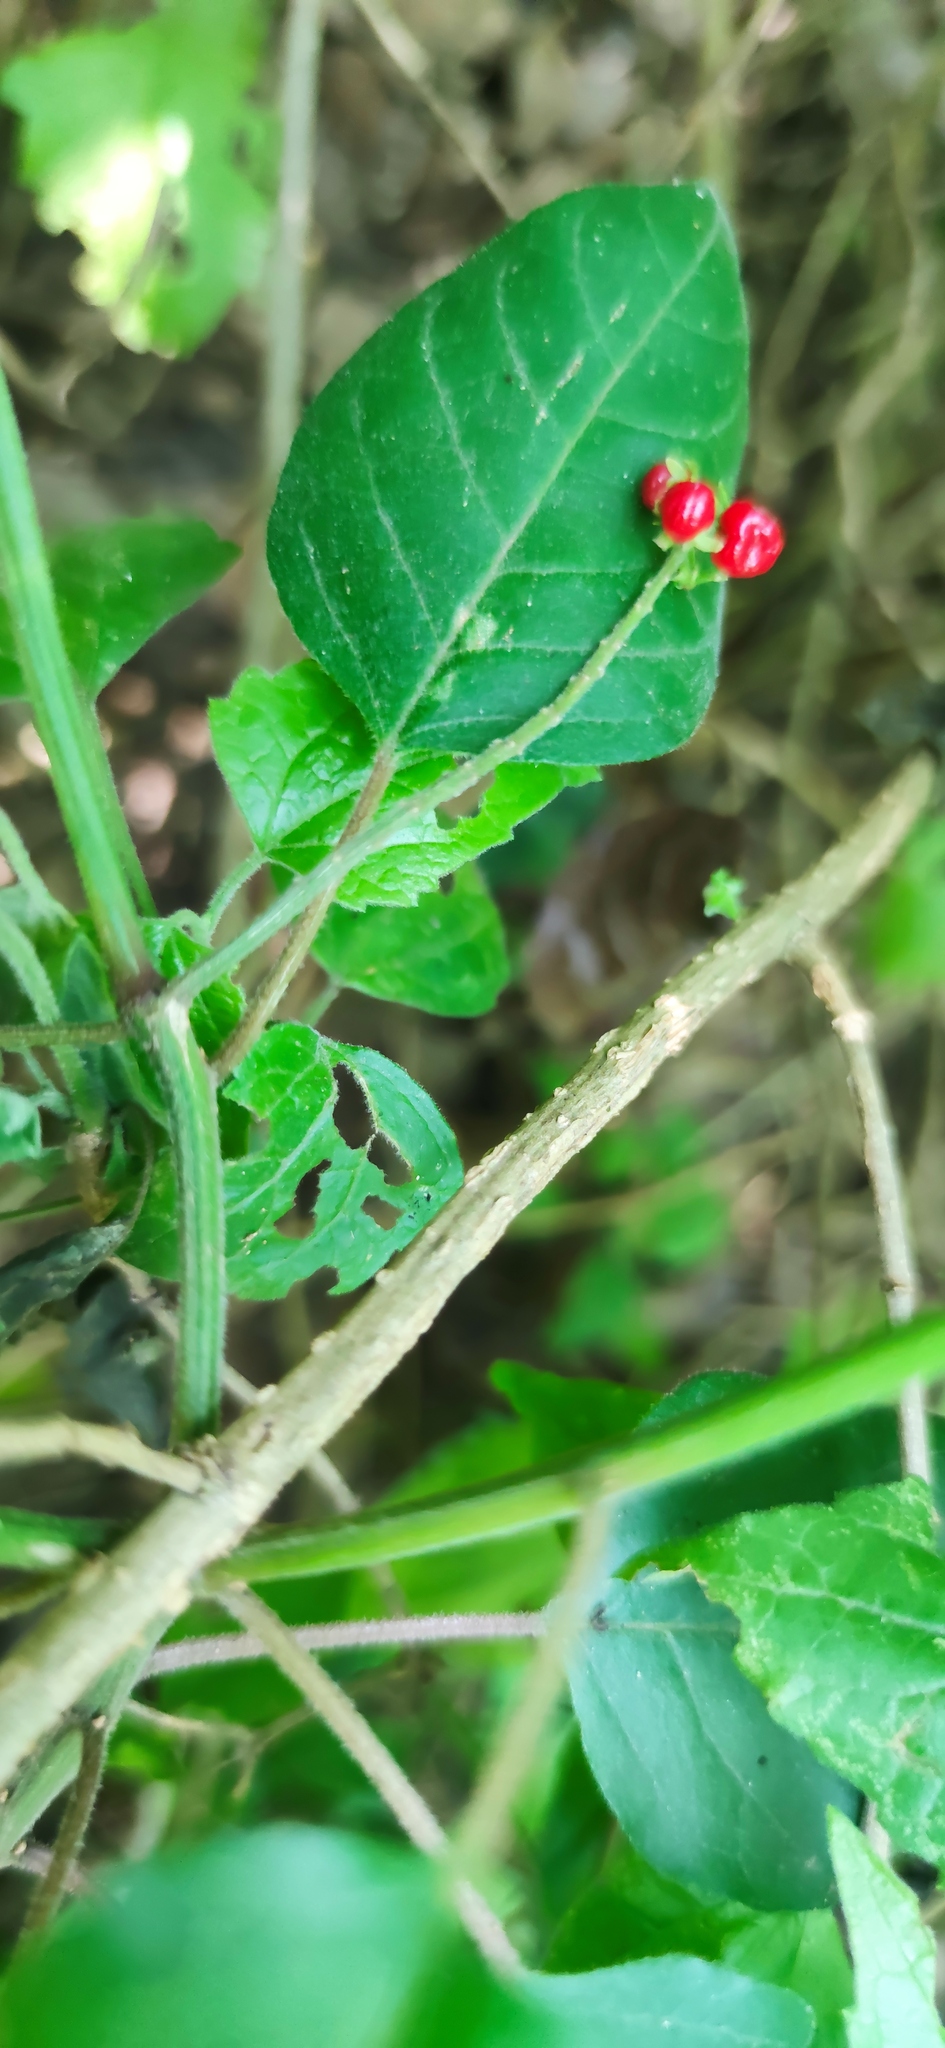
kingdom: Plantae
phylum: Tracheophyta
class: Magnoliopsida
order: Caryophyllales
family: Phytolaccaceae
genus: Rivina
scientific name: Rivina humilis
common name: Rougeplant
